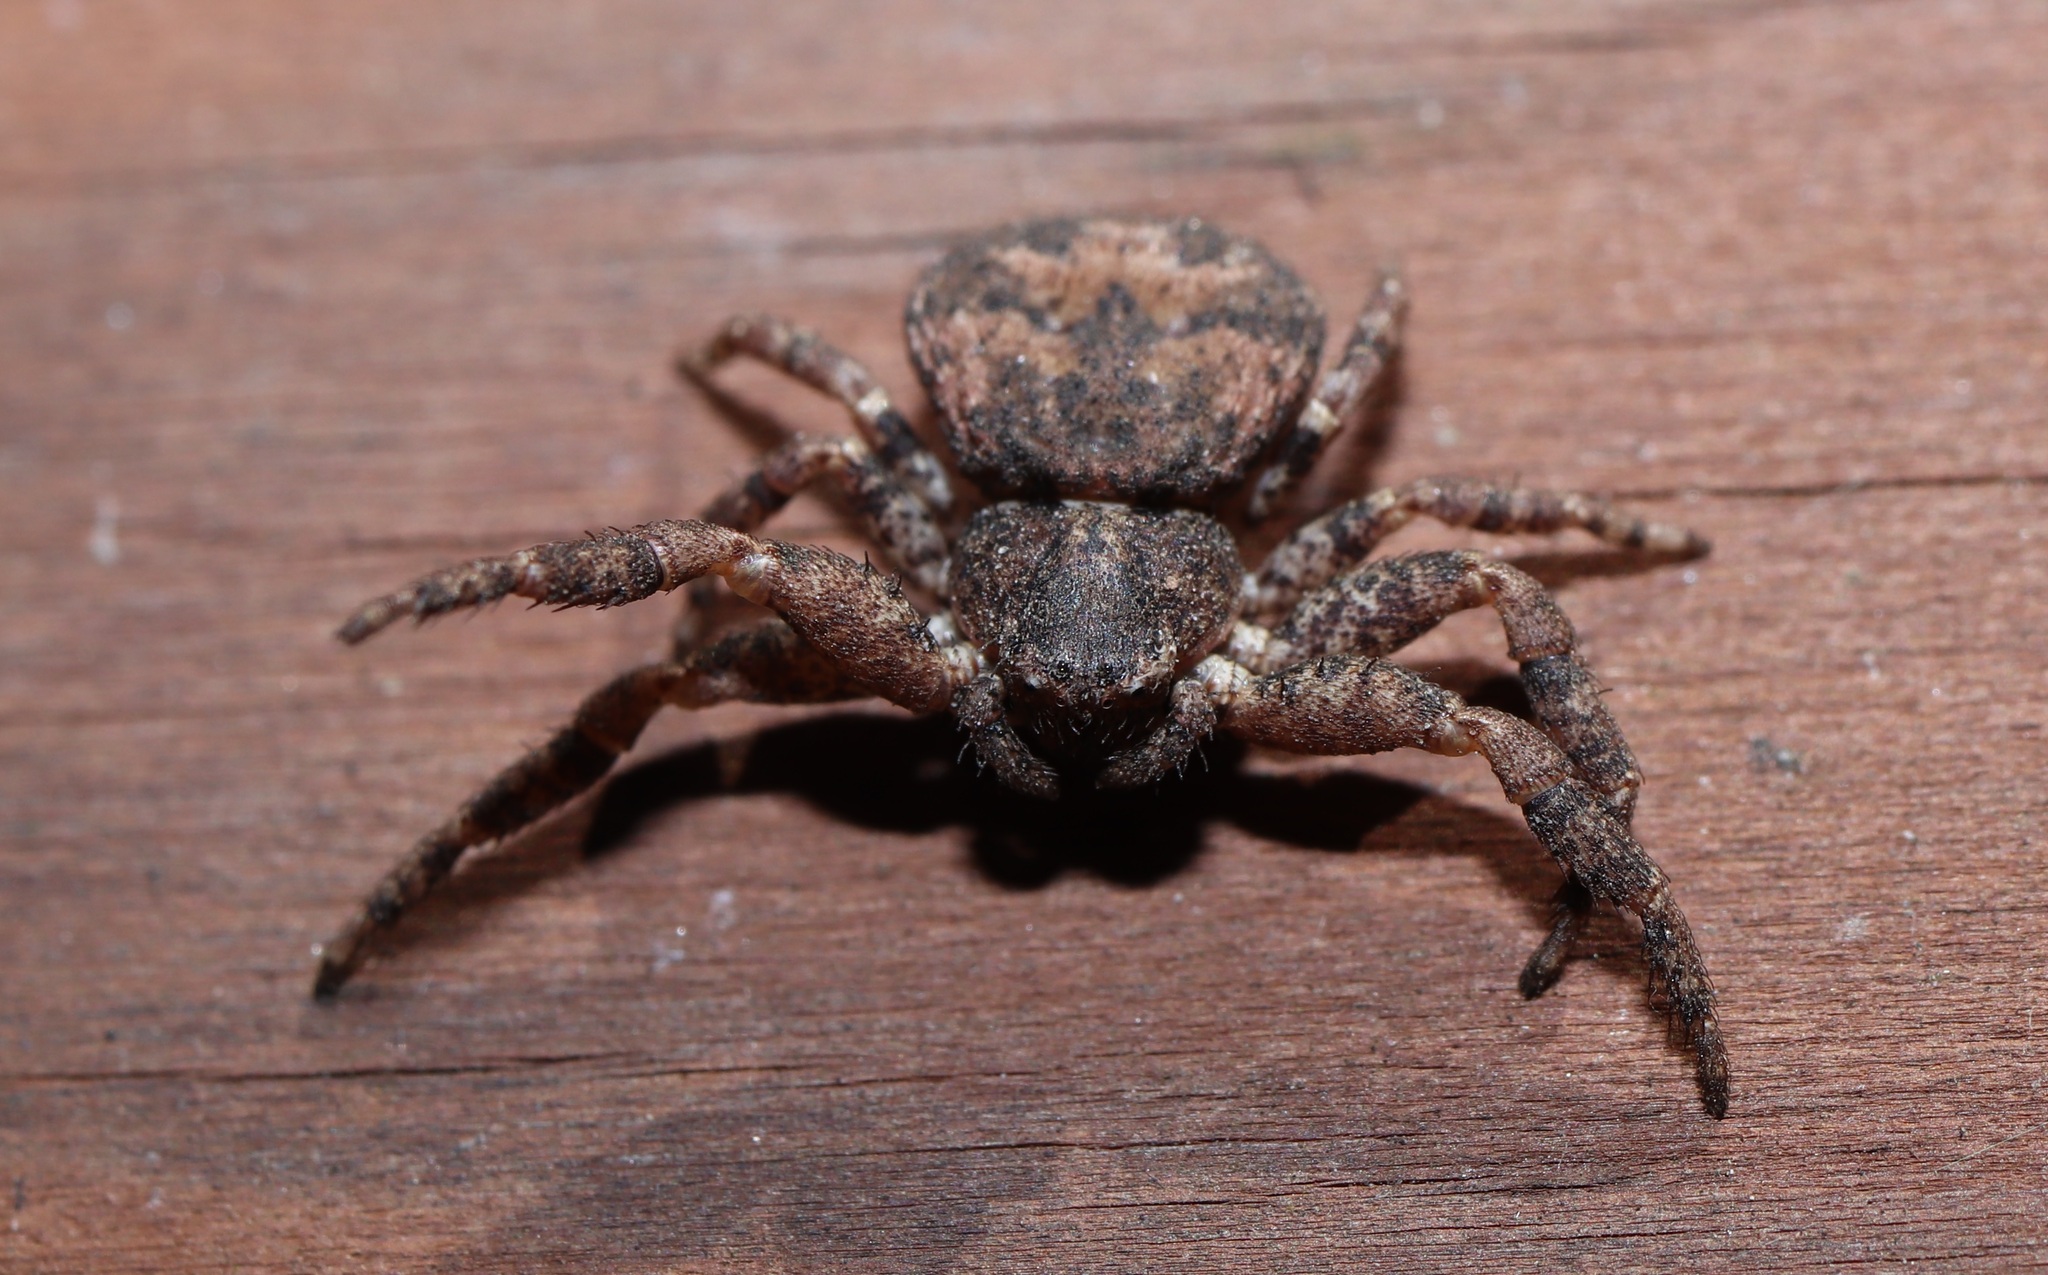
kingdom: Animalia
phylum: Arthropoda
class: Arachnida
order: Araneae
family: Thomisidae
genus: Bassaniana
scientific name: Bassaniana decorata
